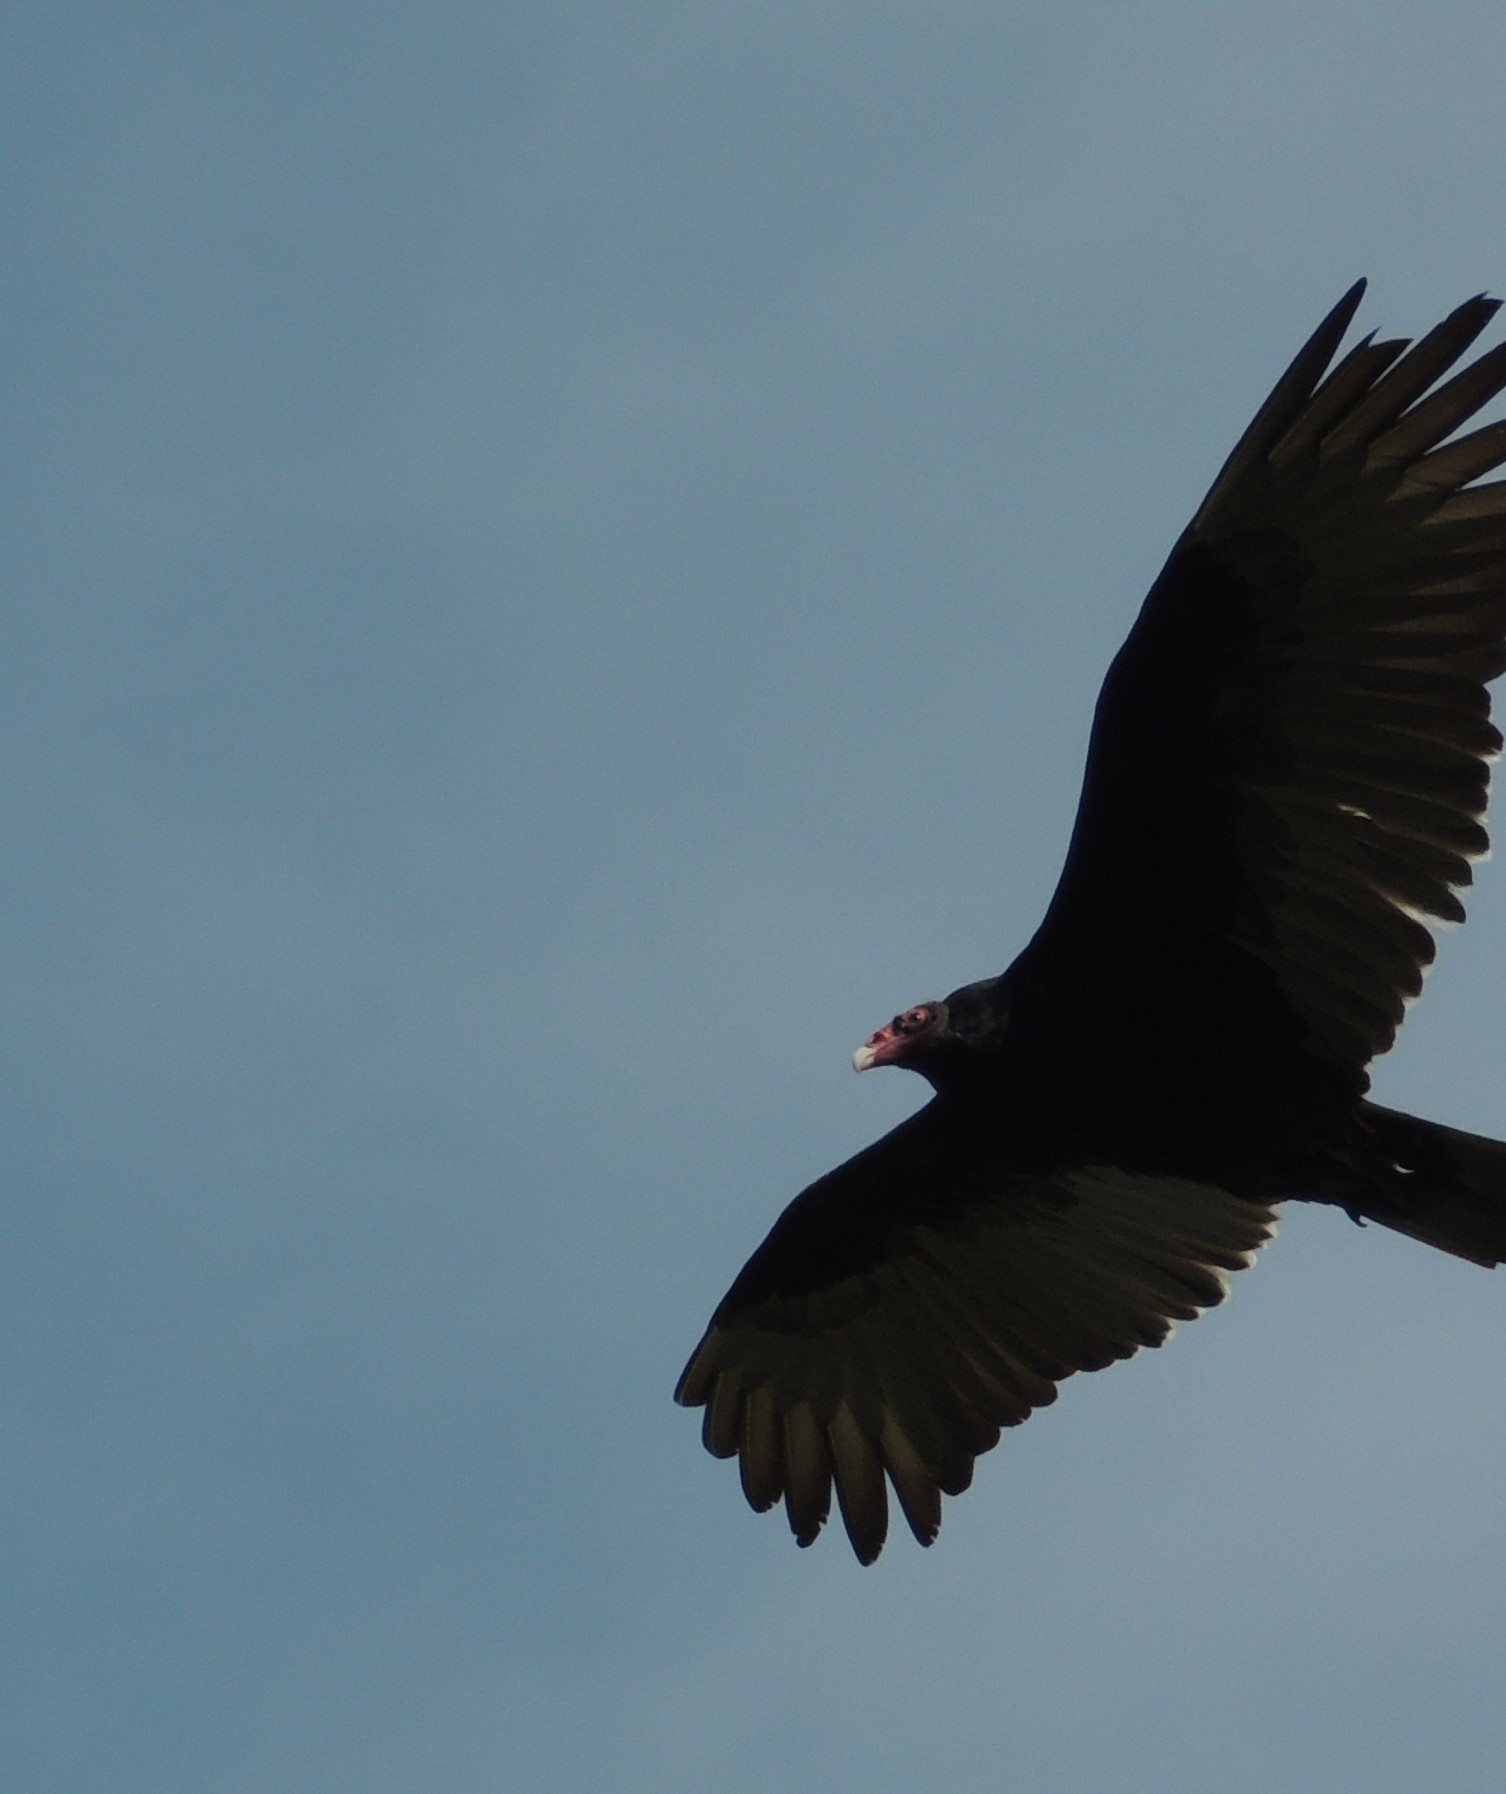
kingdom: Animalia
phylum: Chordata
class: Aves
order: Accipitriformes
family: Cathartidae
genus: Cathartes
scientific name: Cathartes aura
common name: Turkey vulture
